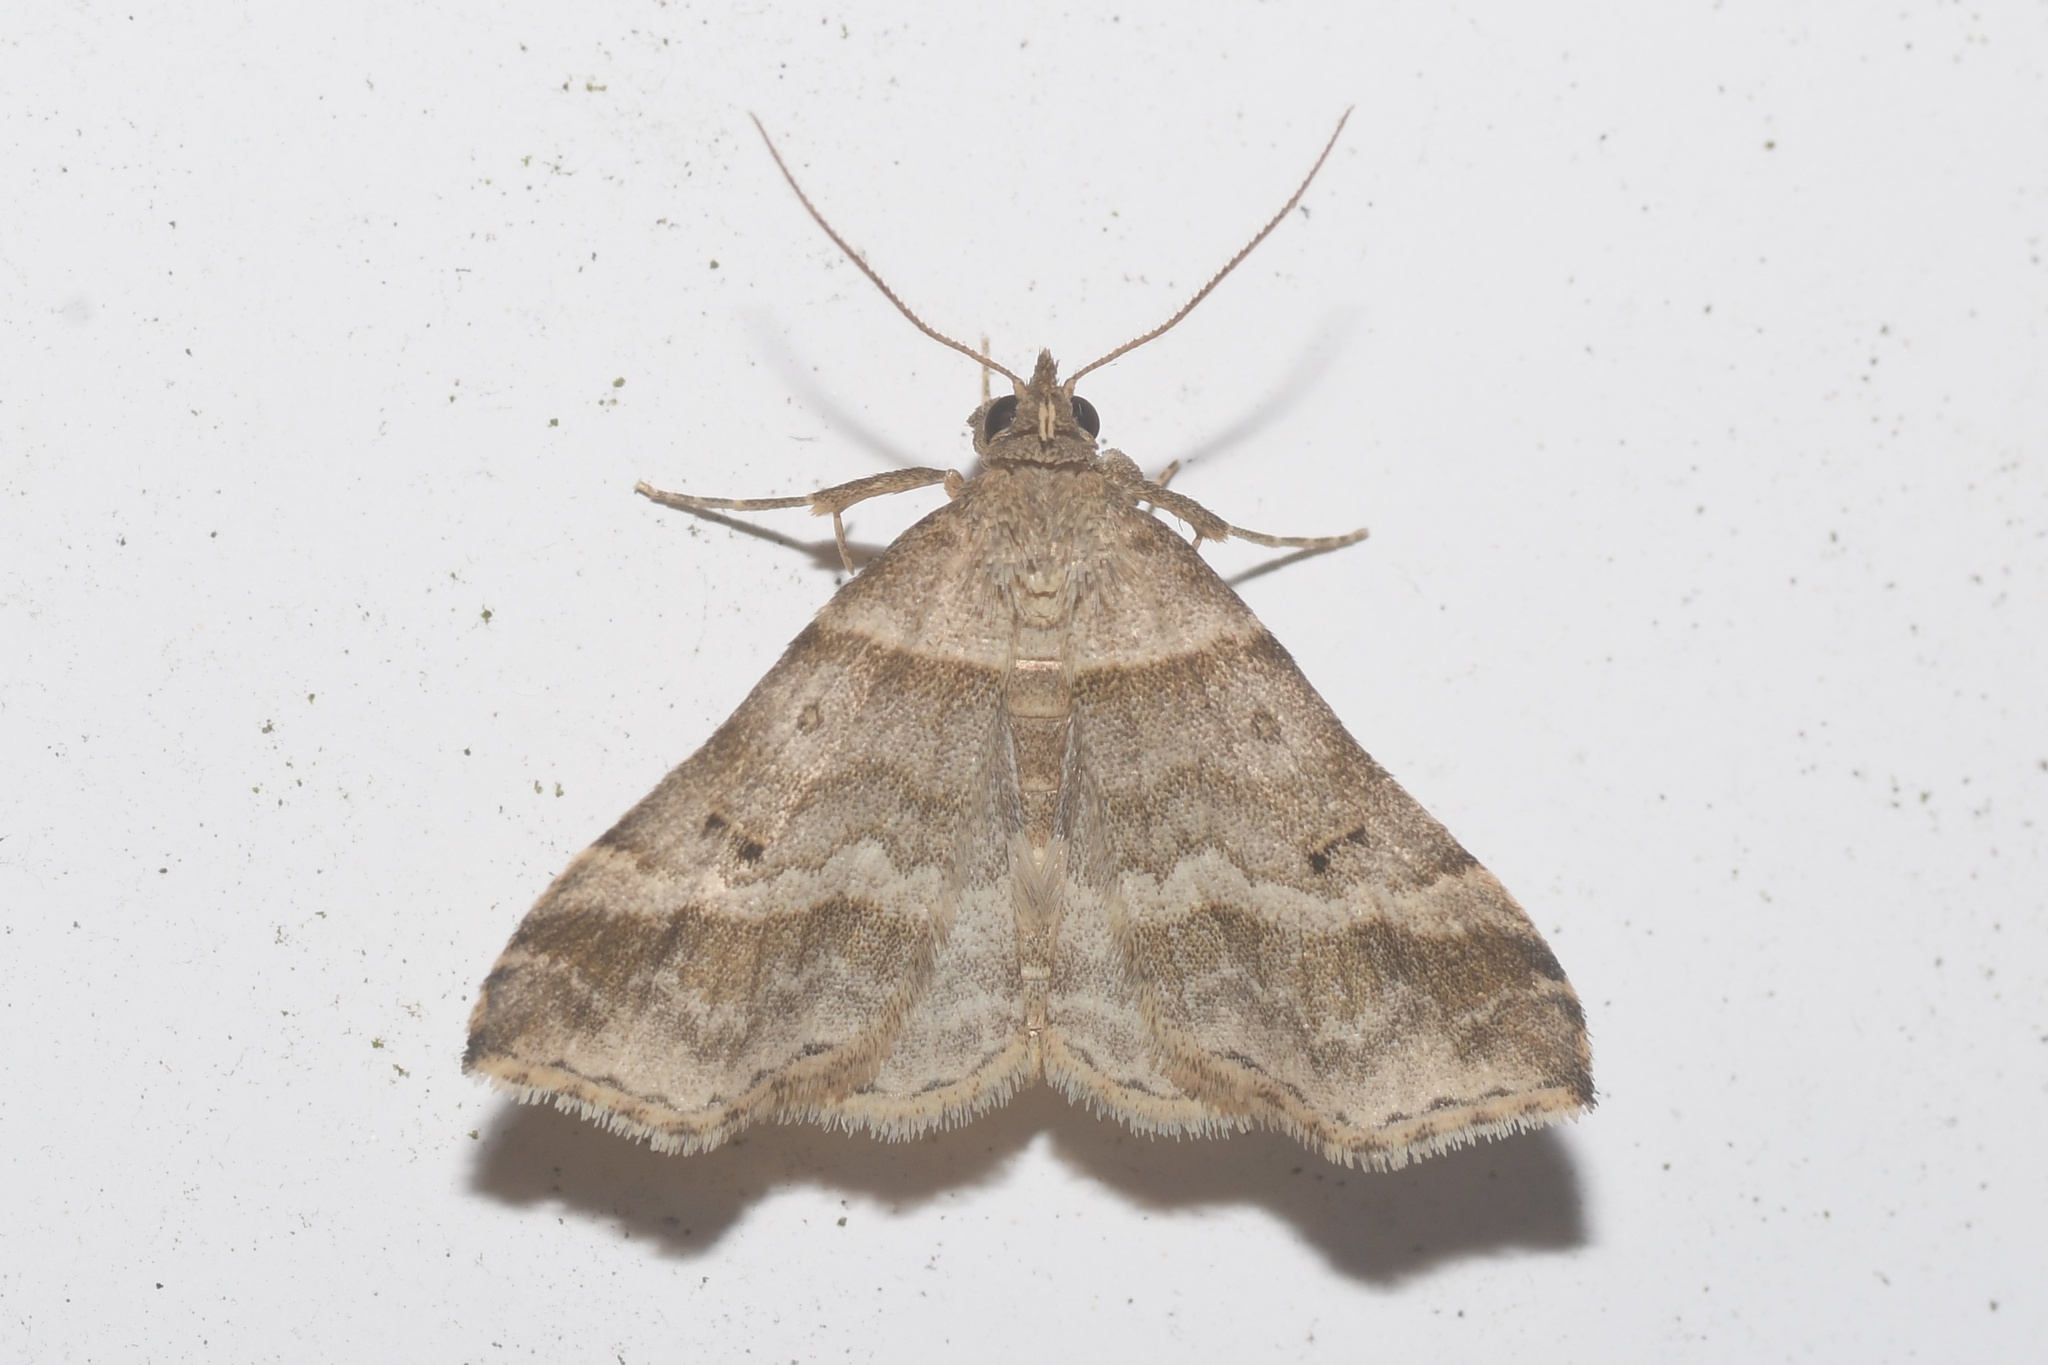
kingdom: Animalia
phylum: Arthropoda
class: Insecta
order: Lepidoptera
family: Erebidae
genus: Phaeolita
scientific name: Phaeolita pyramusalis
